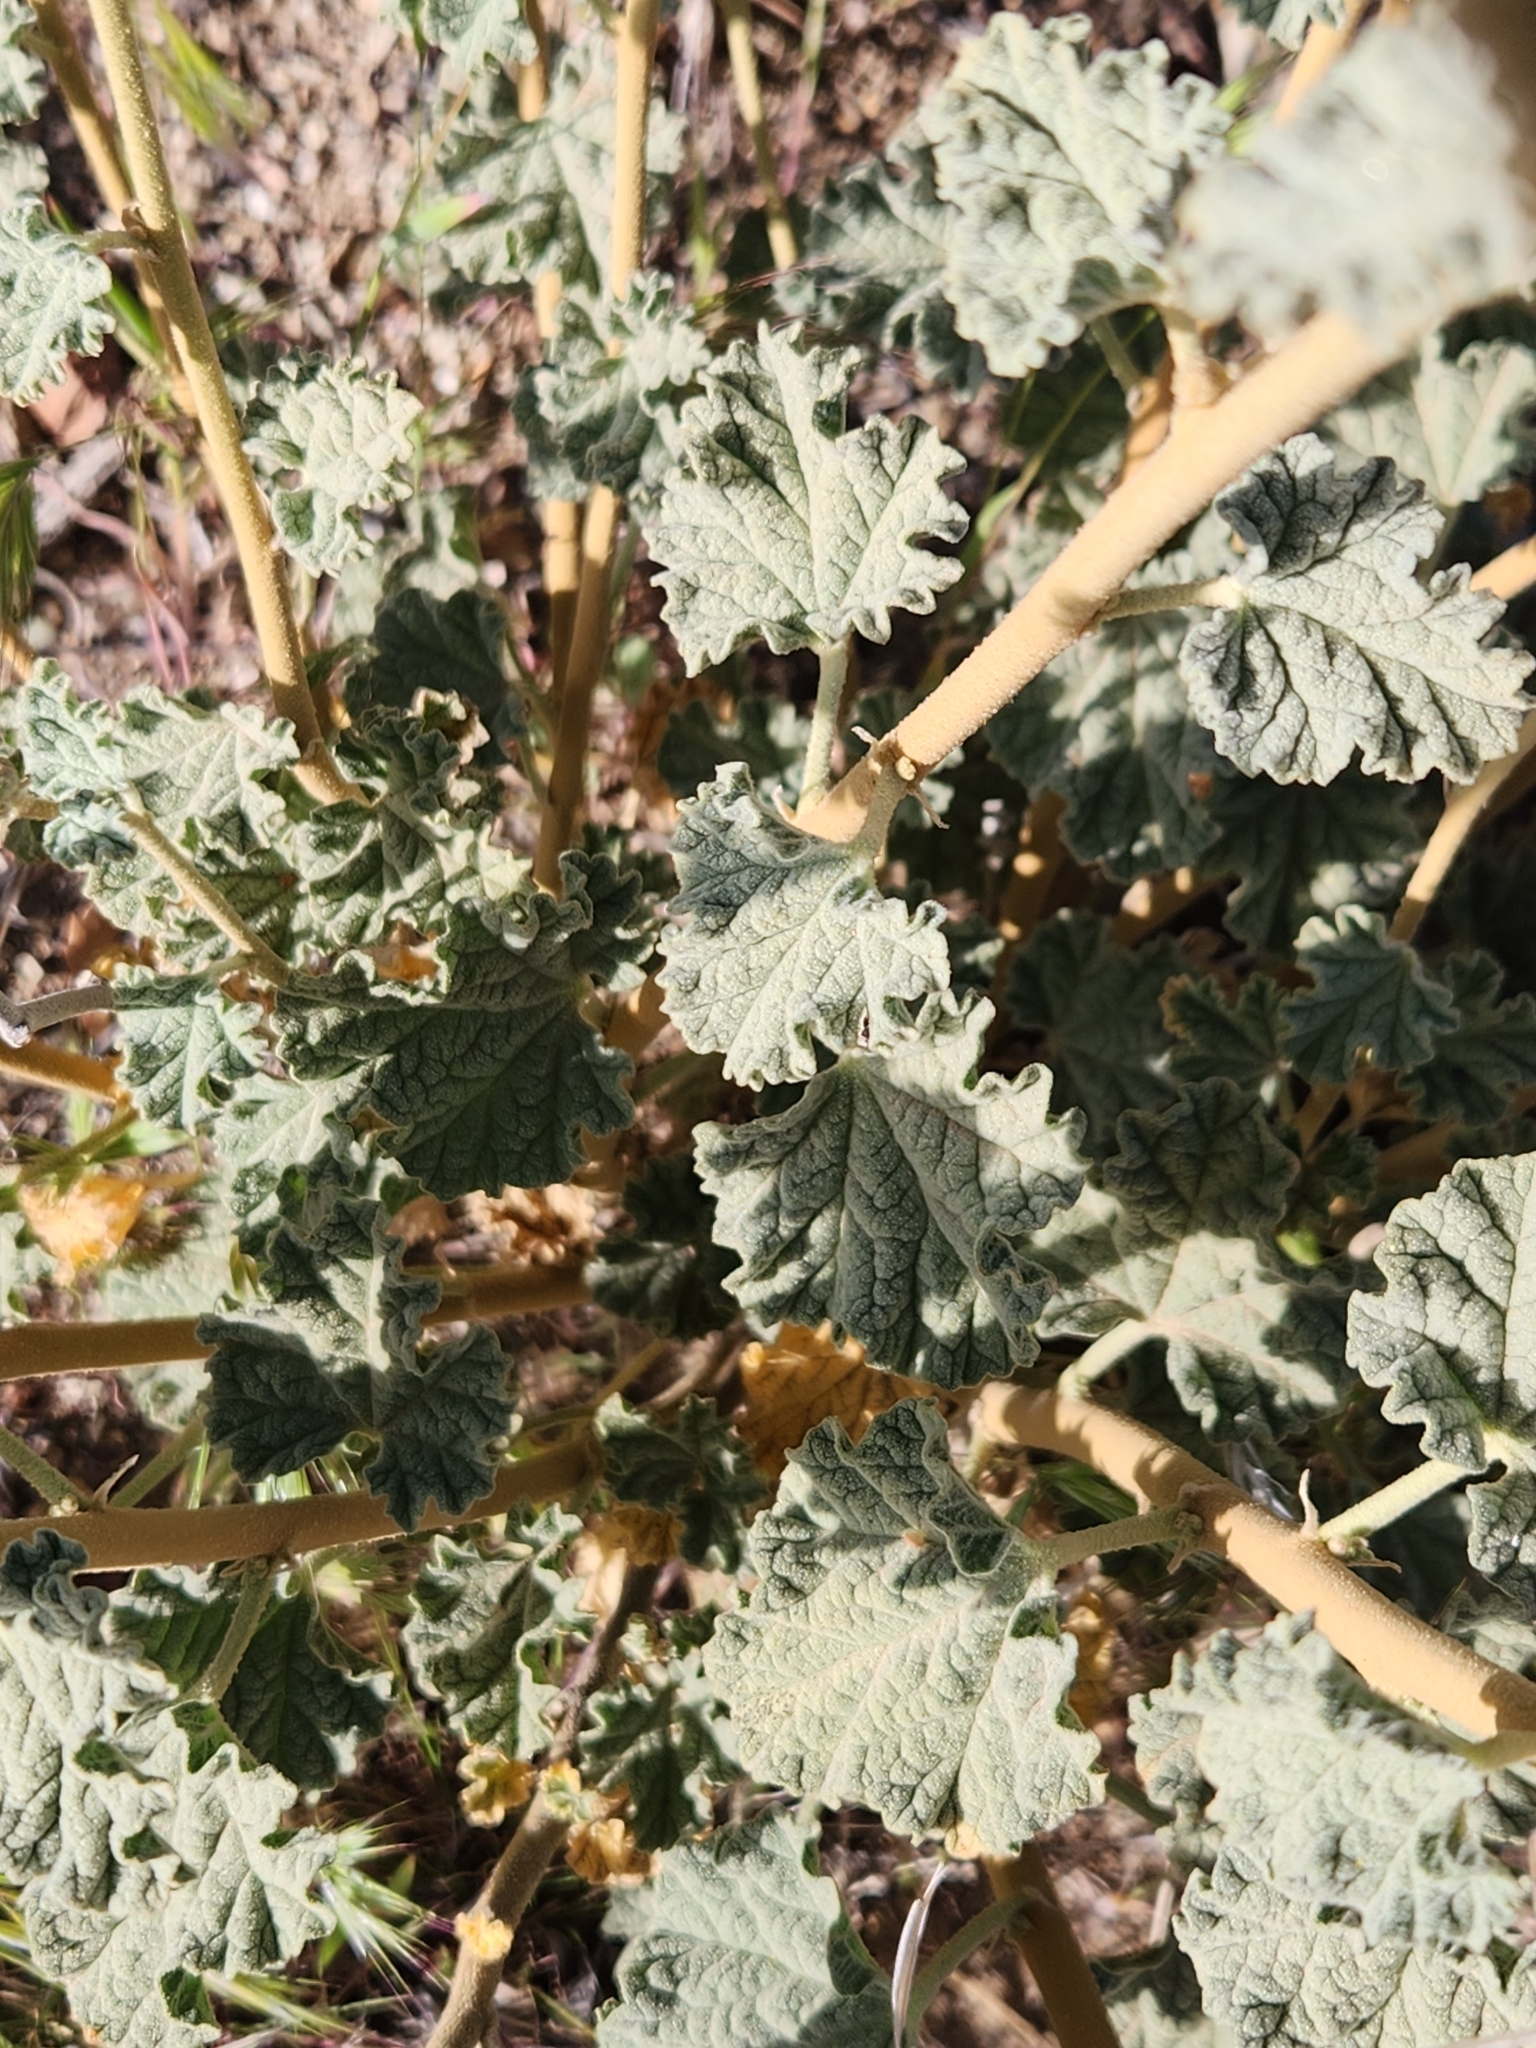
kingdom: Plantae
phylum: Tracheophyta
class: Magnoliopsida
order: Malvales
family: Malvaceae
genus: Sphaeralcea
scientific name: Sphaeralcea ambigua
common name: Apricot globe-mallow
